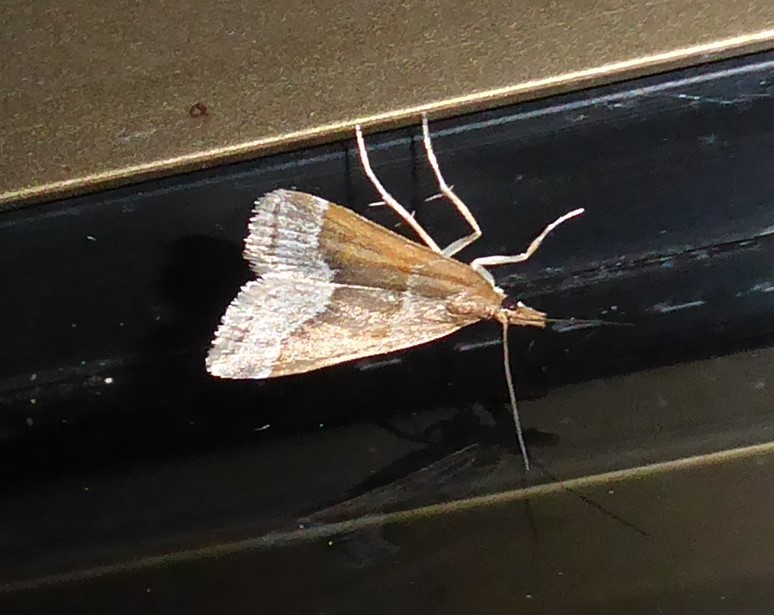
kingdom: Animalia
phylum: Arthropoda
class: Insecta
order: Lepidoptera
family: Crambidae
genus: Eudonia
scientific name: Eudonia feredayi
